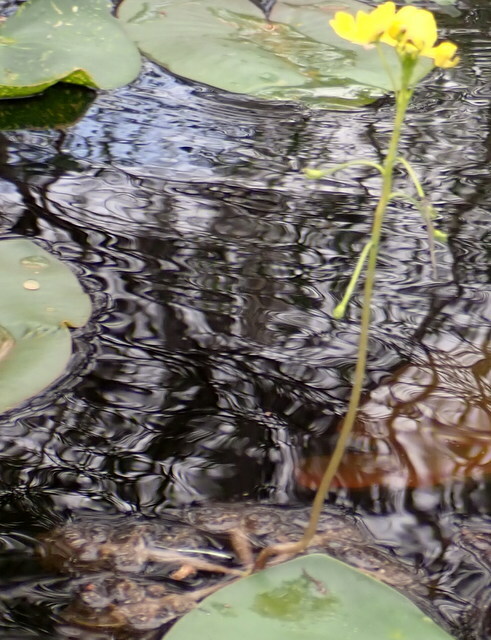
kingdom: Plantae
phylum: Tracheophyta
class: Magnoliopsida
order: Lamiales
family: Lentibulariaceae
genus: Utricularia
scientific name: Utricularia inflata
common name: Floating bladderwort
